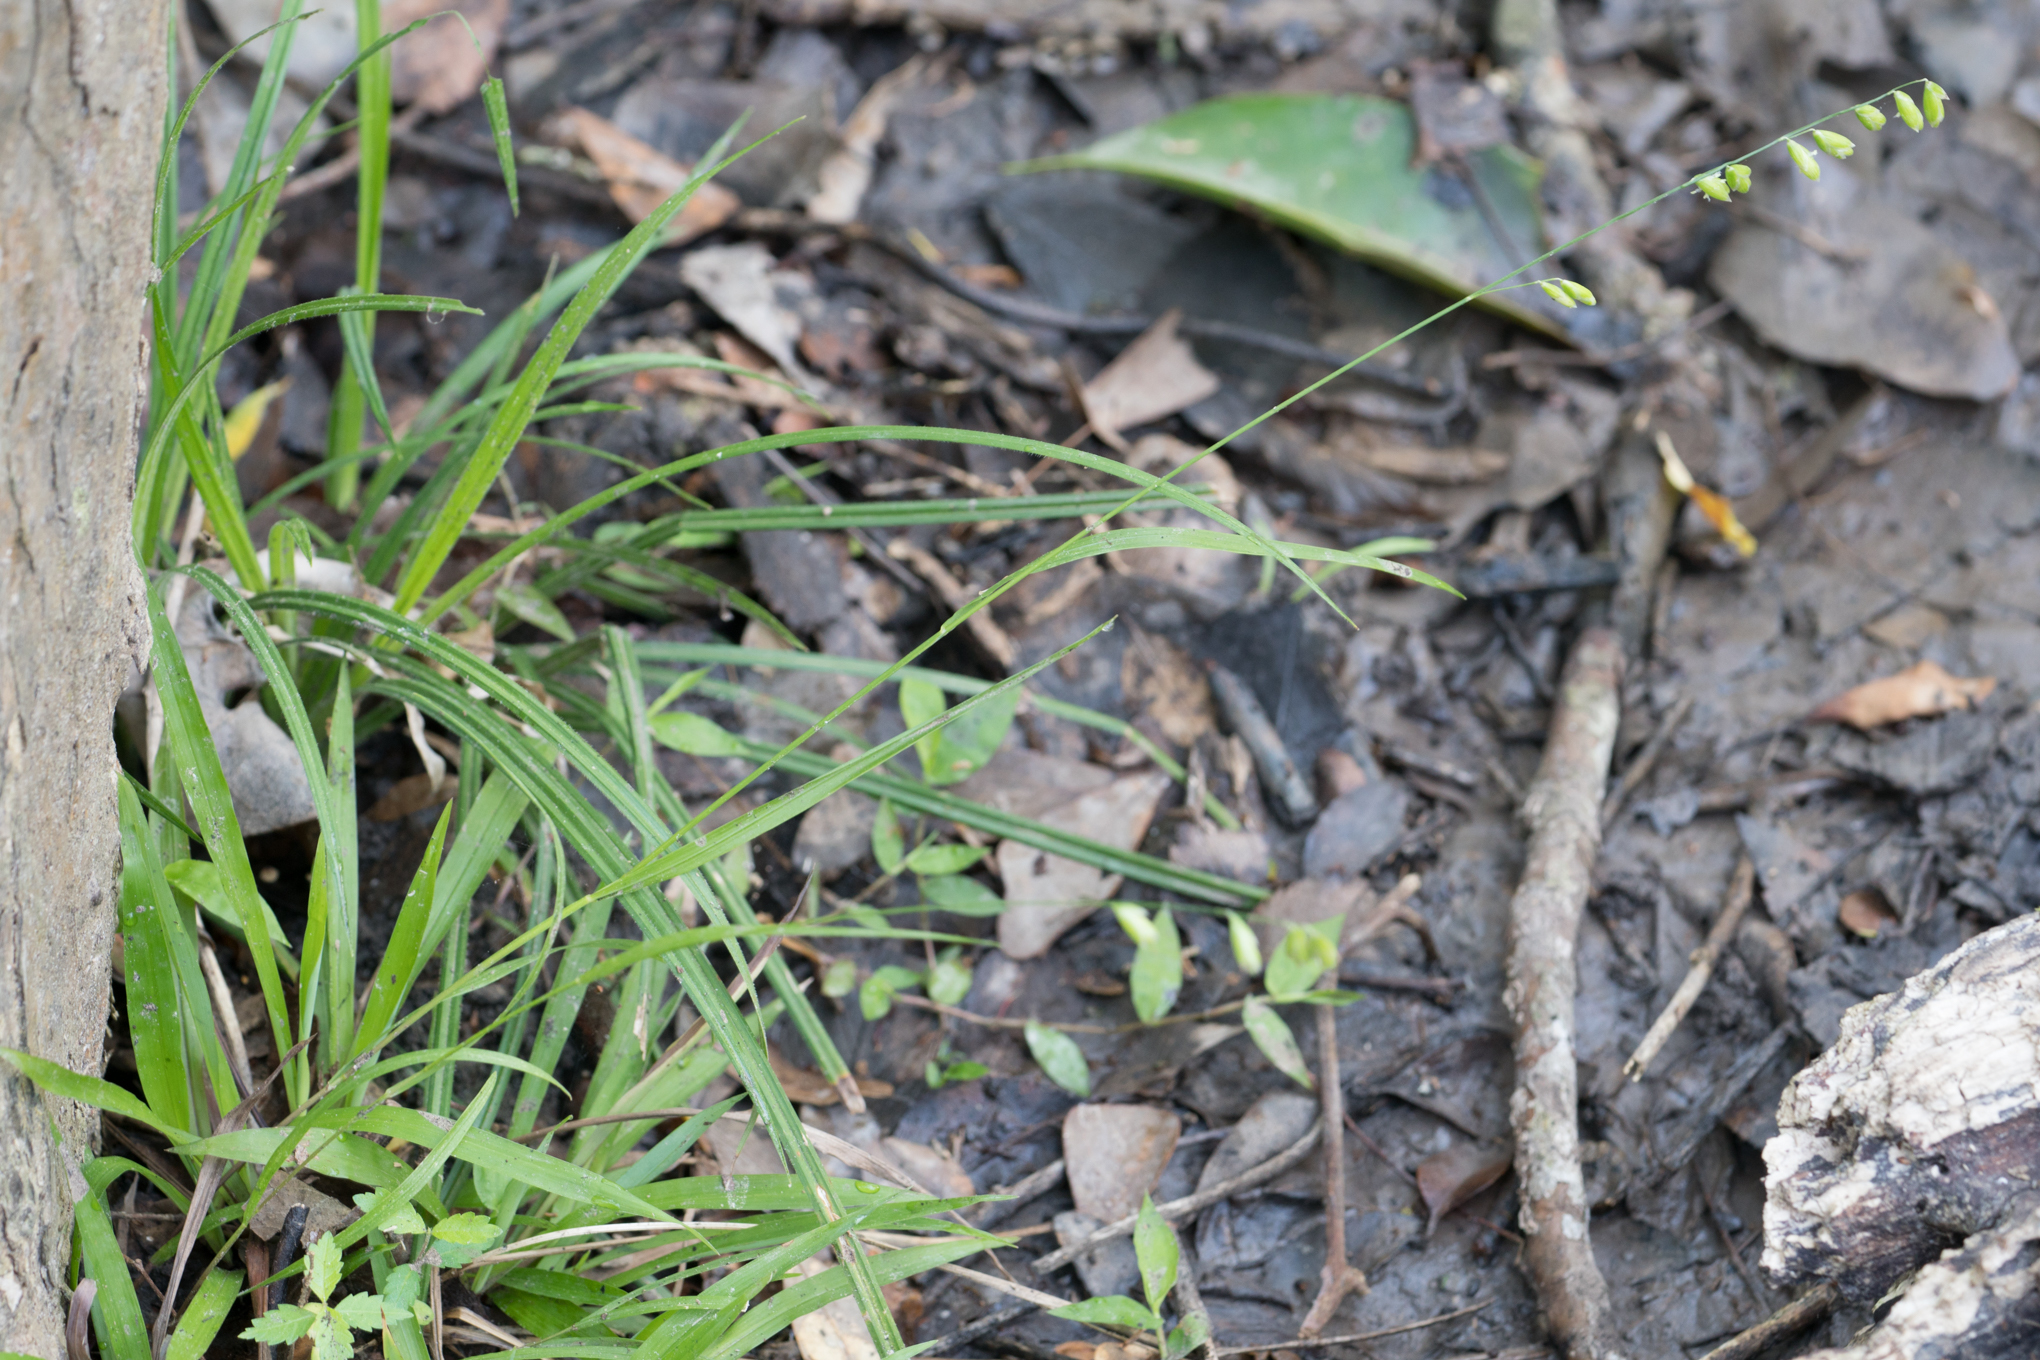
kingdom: Plantae
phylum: Tracheophyta
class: Liliopsida
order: Poales
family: Poaceae
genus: Melica
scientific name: Melica mutica
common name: Two-flower melic
